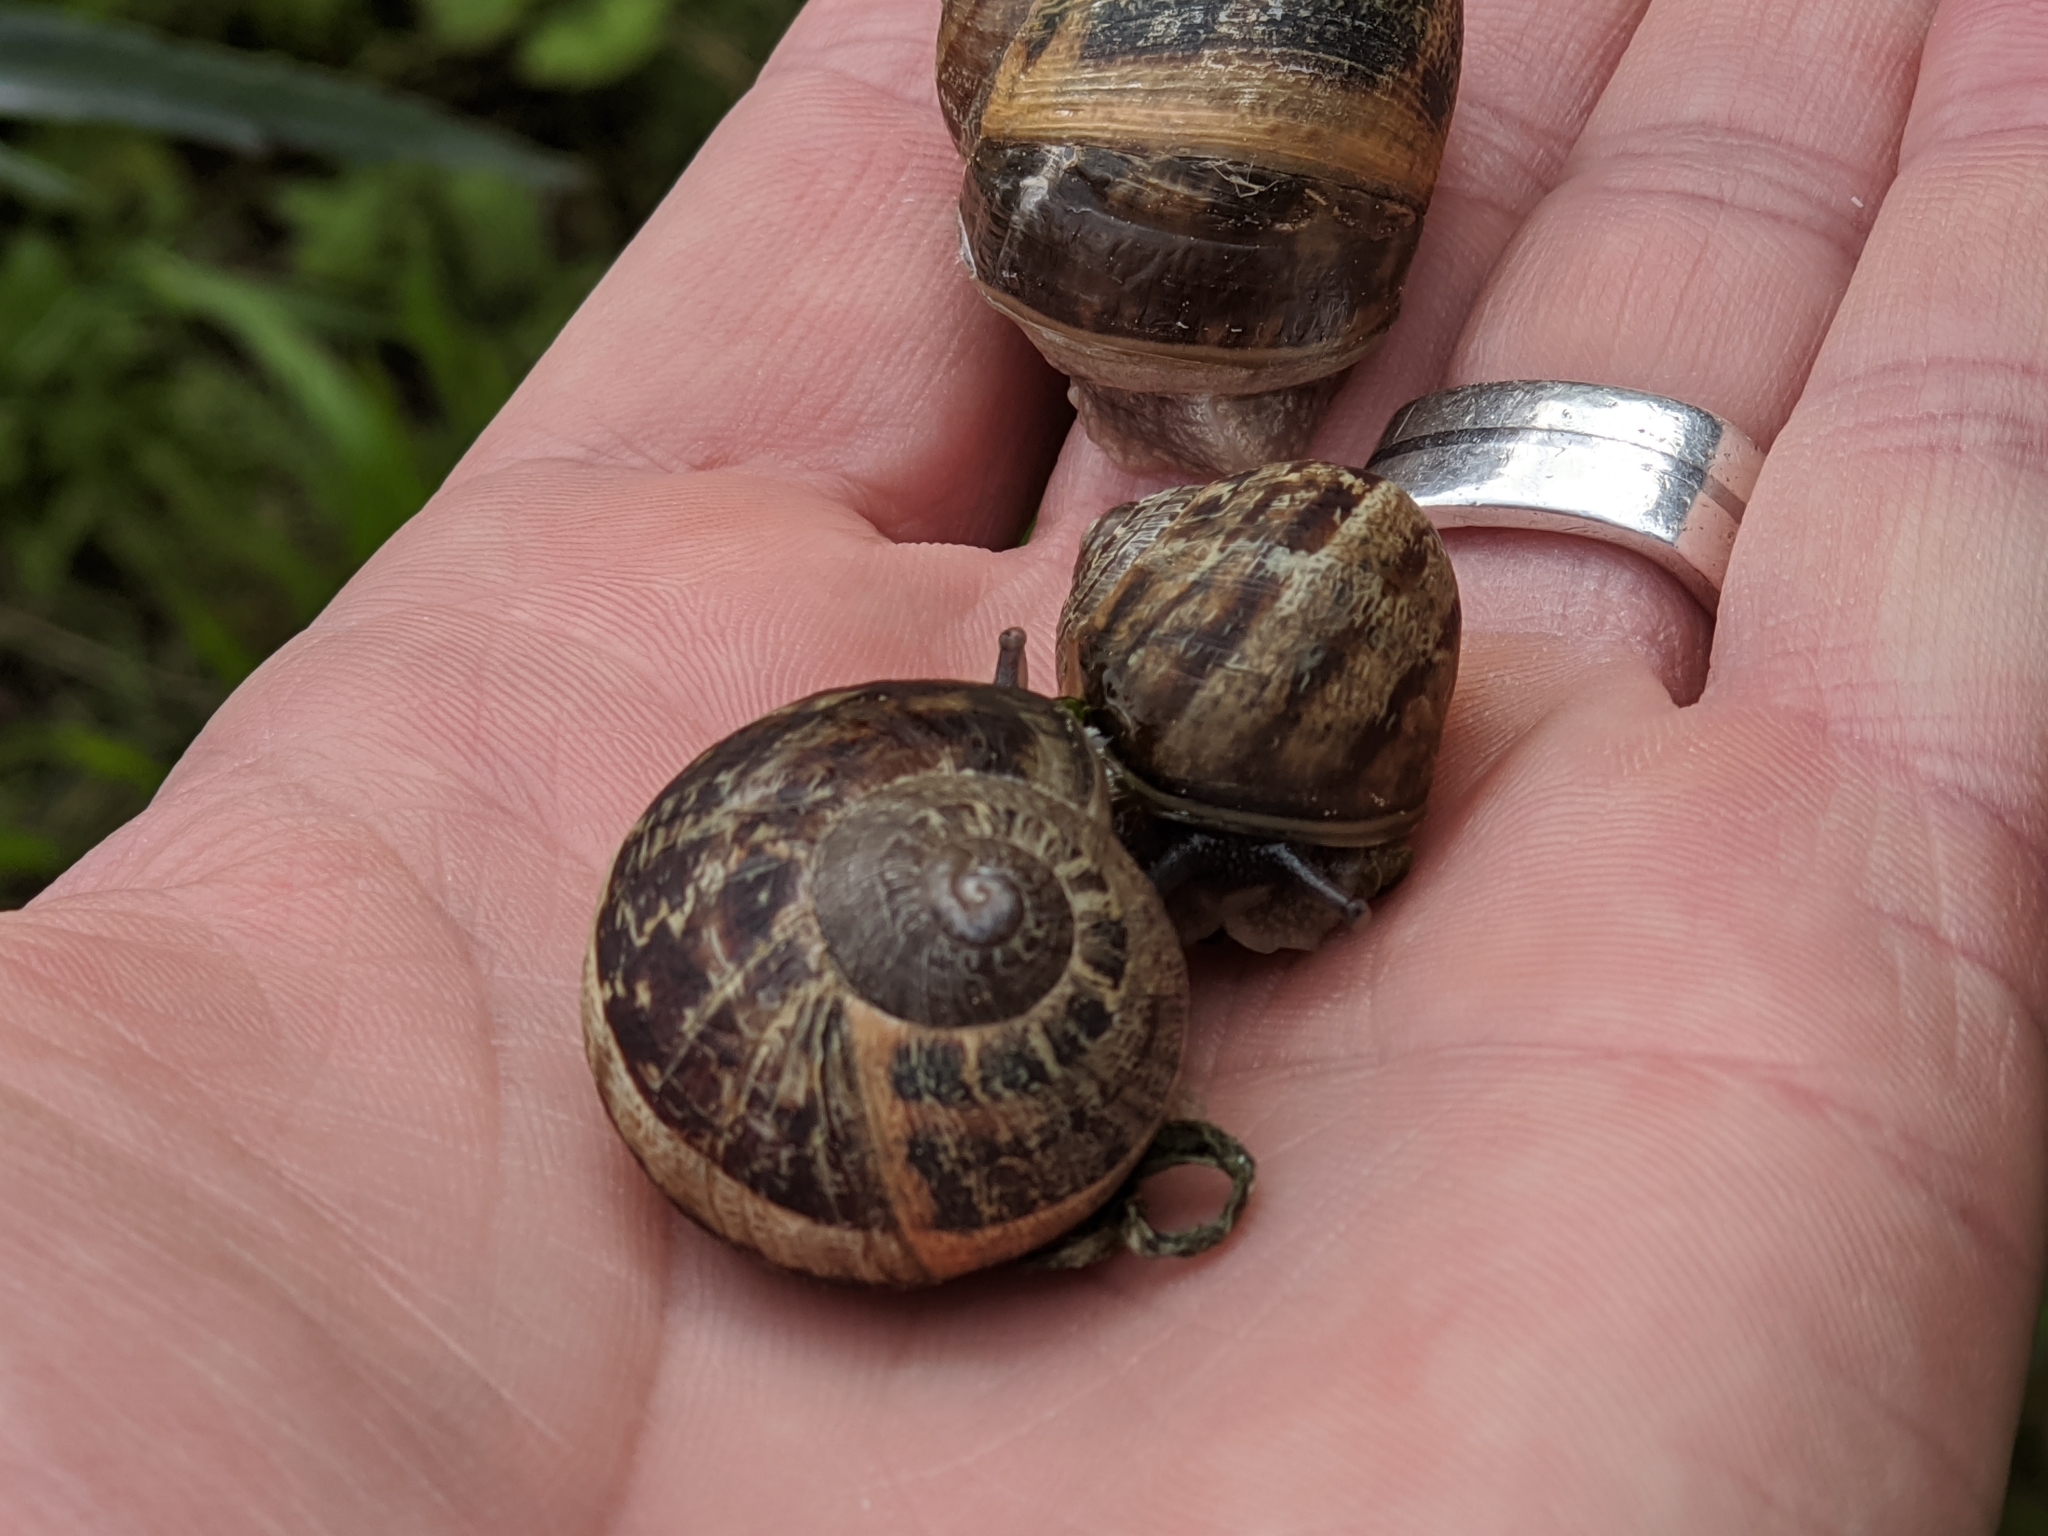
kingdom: Animalia
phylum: Mollusca
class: Gastropoda
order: Stylommatophora
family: Helicidae
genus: Cornu
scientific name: Cornu aspersum
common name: Brown garden snail
